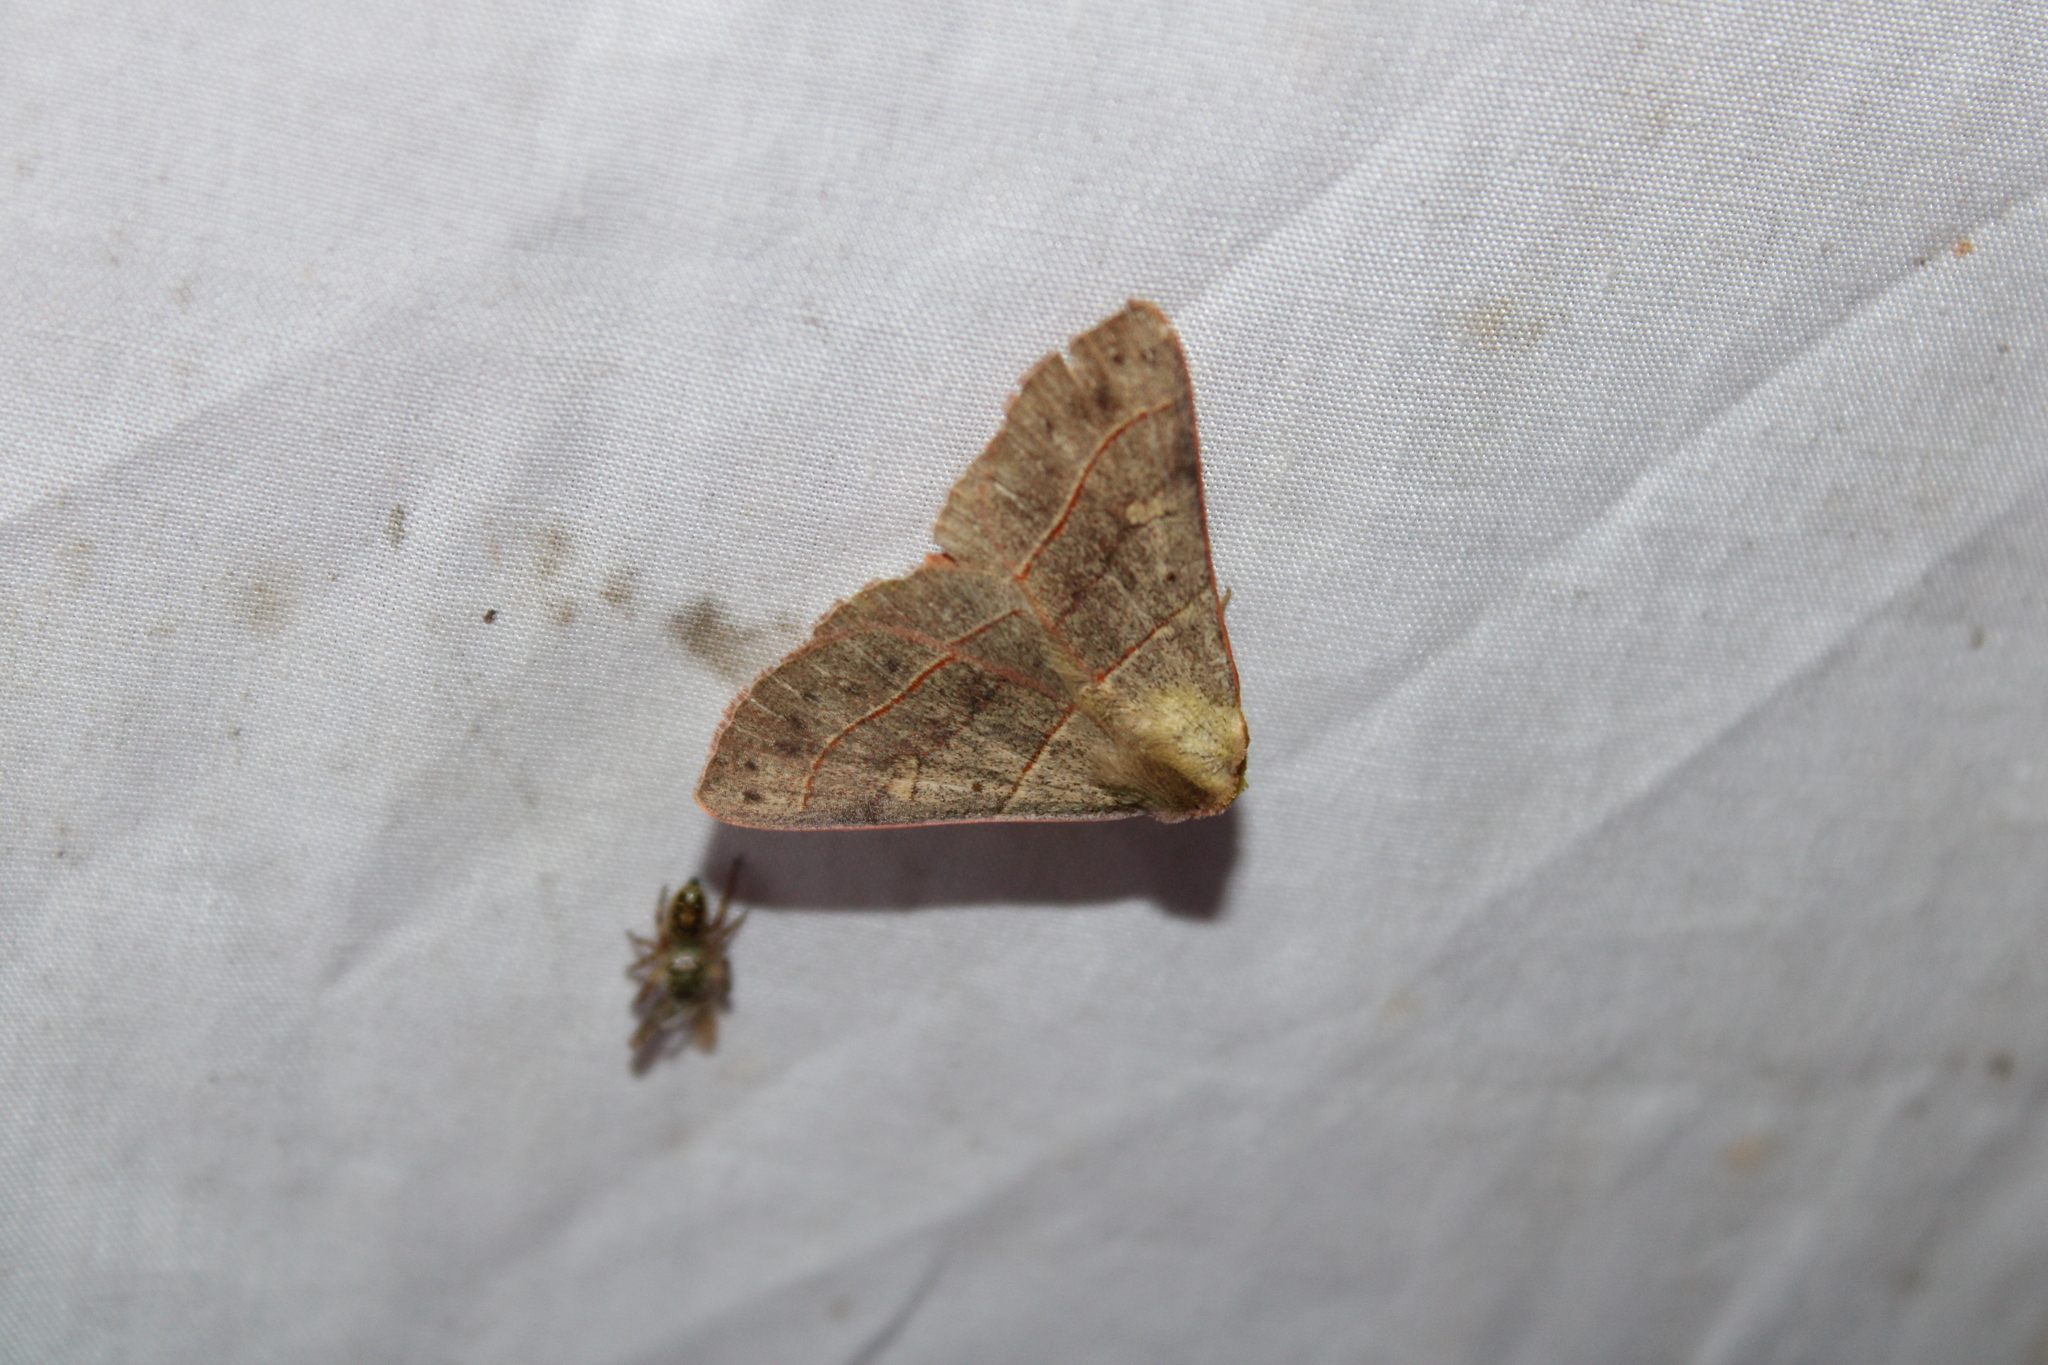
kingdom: Animalia
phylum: Arthropoda
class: Insecta
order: Lepidoptera
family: Erebidae
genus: Panopoda
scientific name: Panopoda rufimargo
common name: Red-lined panopoda moth
